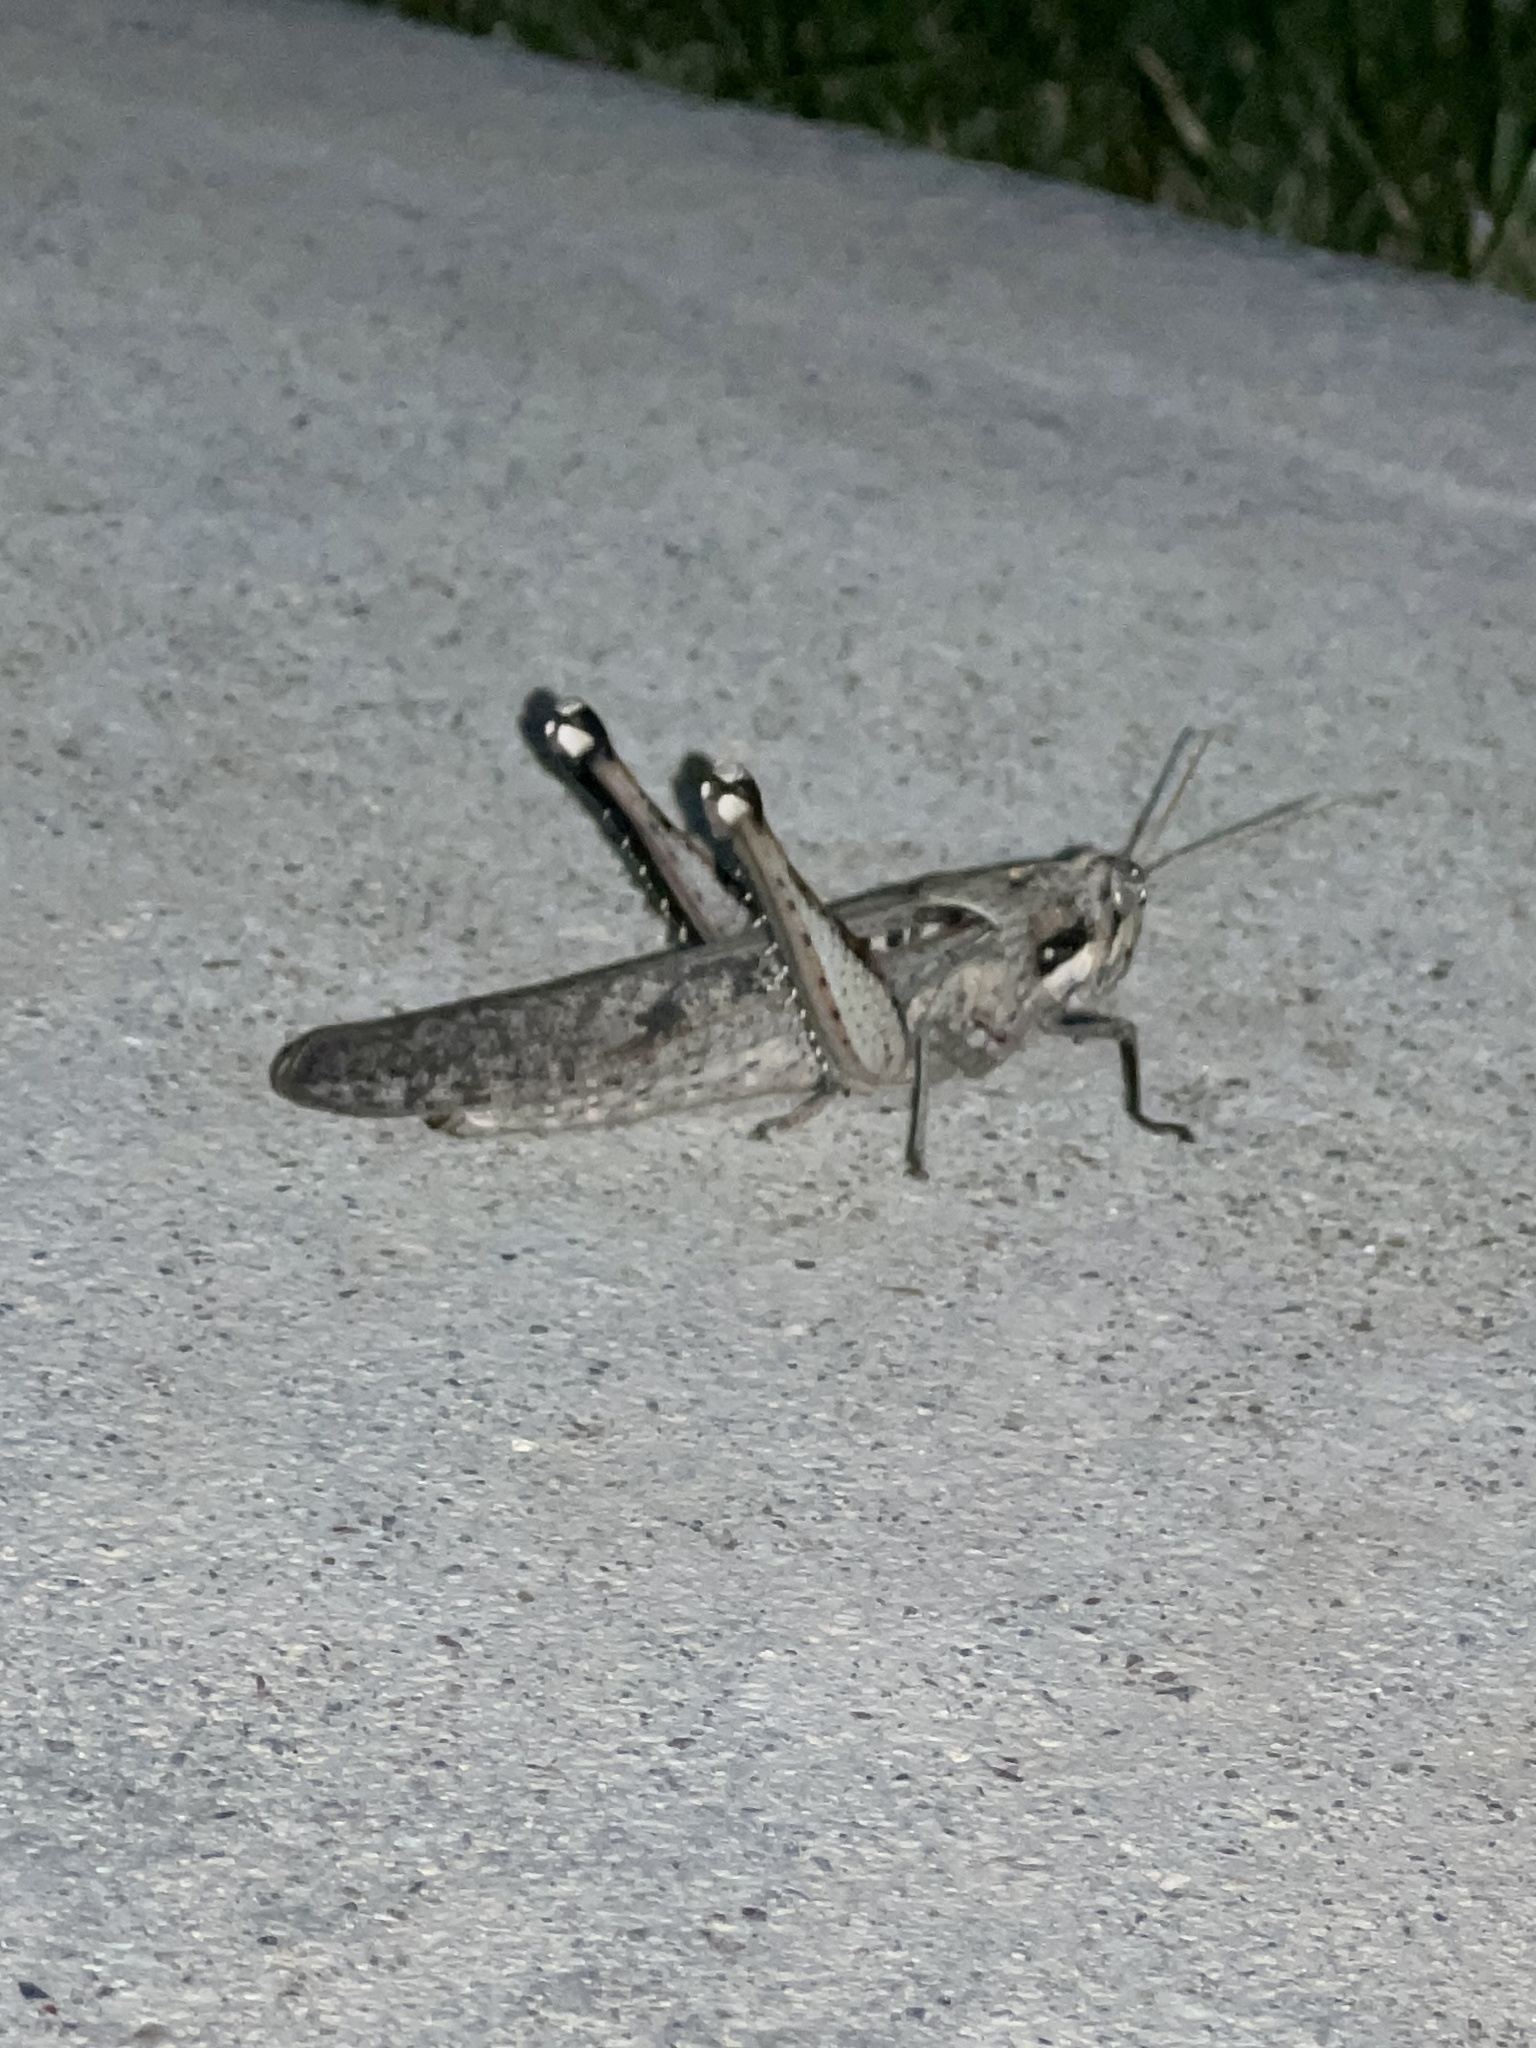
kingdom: Animalia
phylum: Arthropoda
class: Insecta
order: Orthoptera
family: Acrididae
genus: Schistocerca
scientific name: Schistocerca nitens
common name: Vagrant grasshopper
